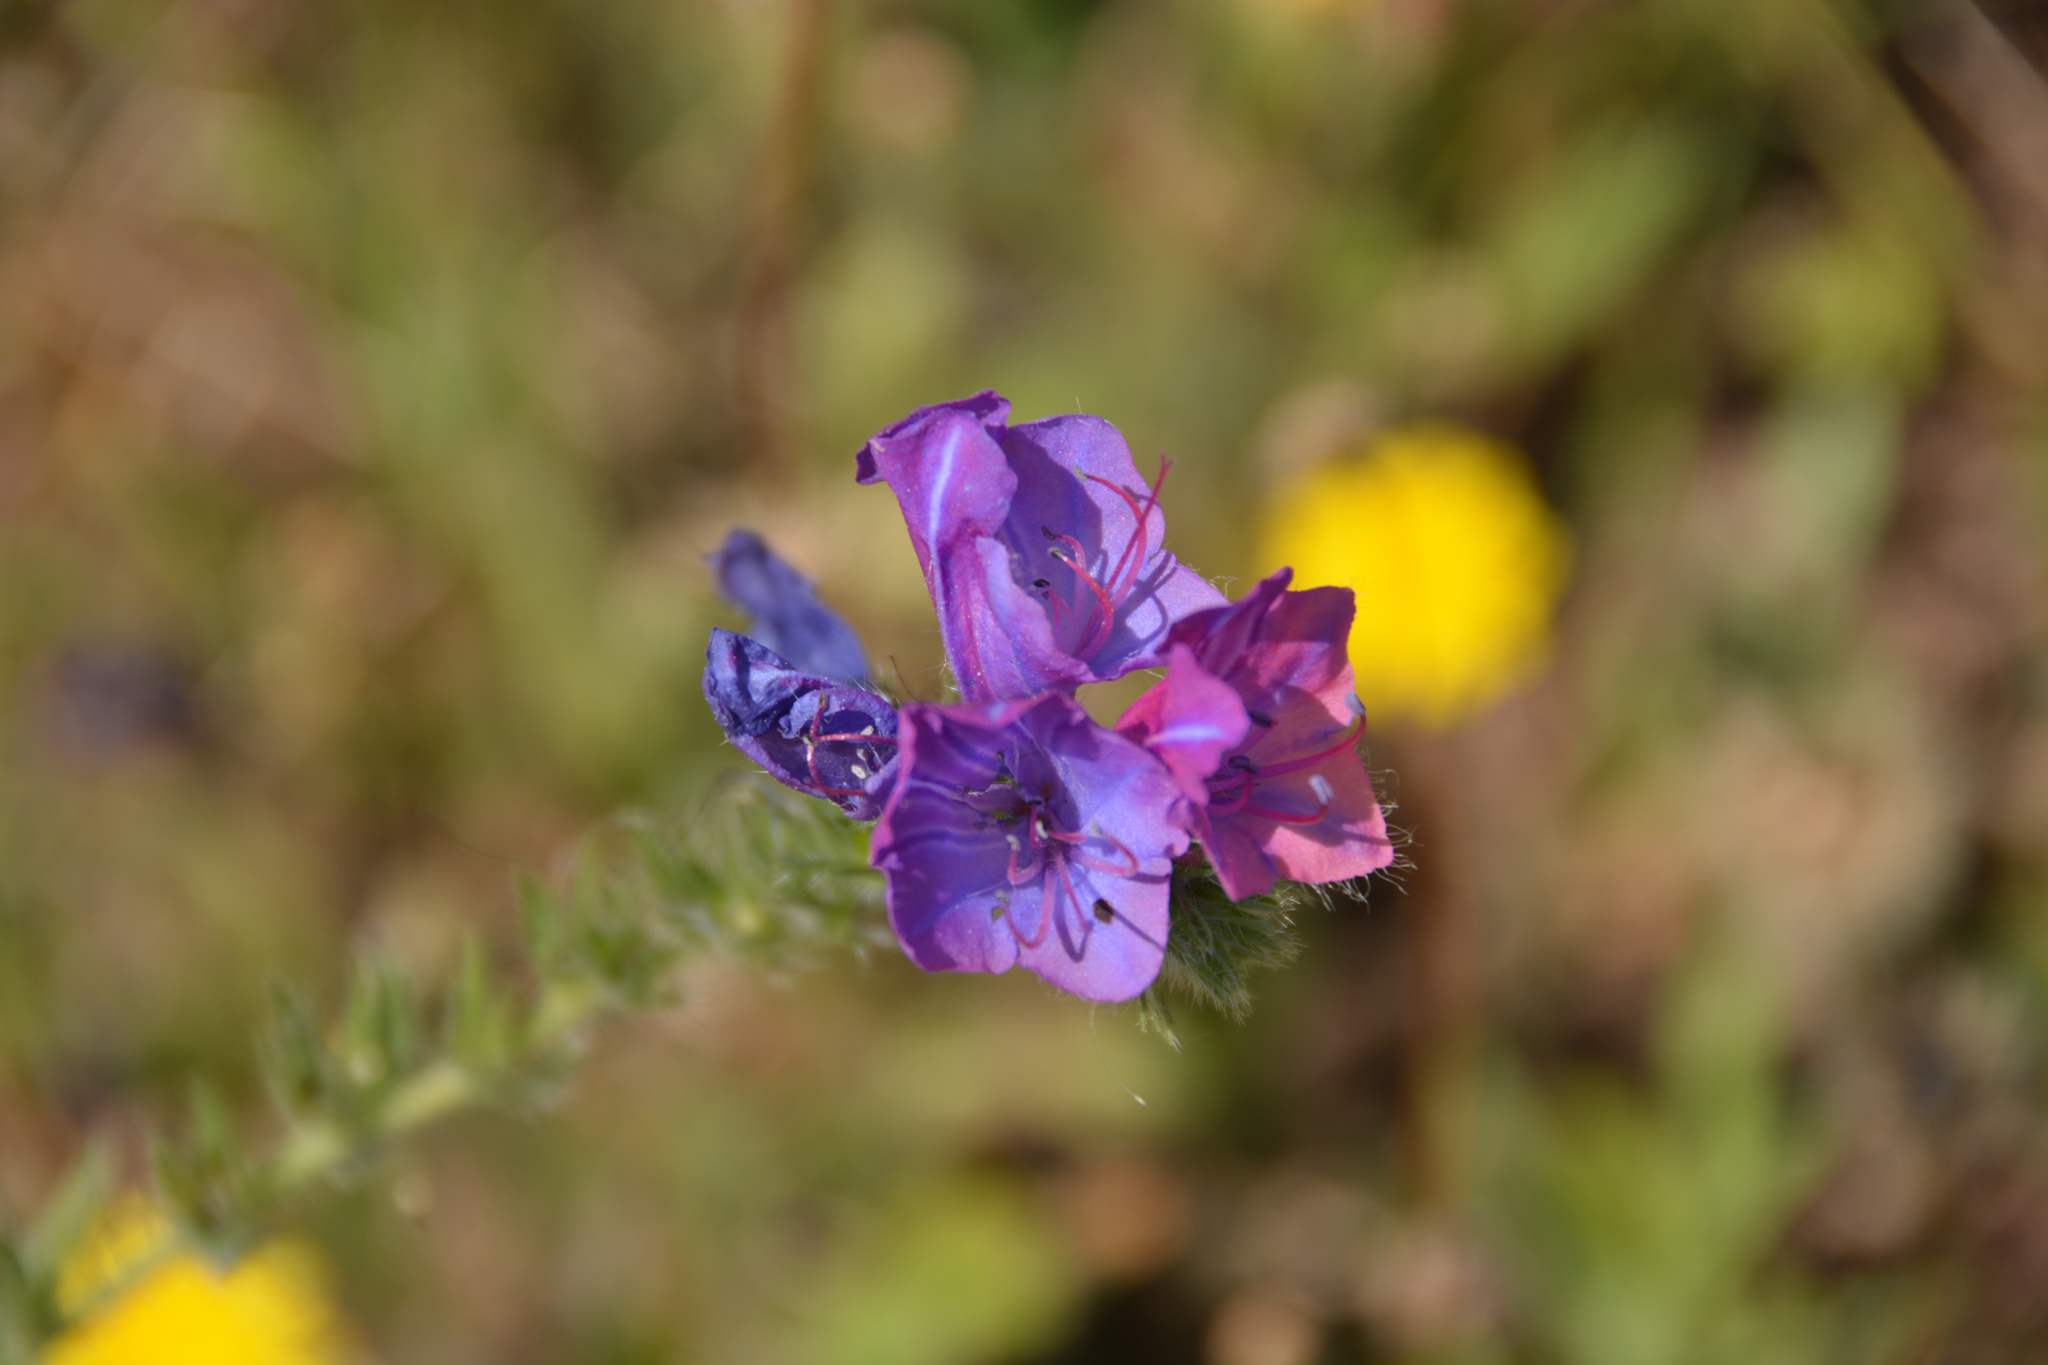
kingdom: Plantae
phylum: Tracheophyta
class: Magnoliopsida
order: Boraginales
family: Boraginaceae
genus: Echium
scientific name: Echium plantagineum
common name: Purple viper's-bugloss
